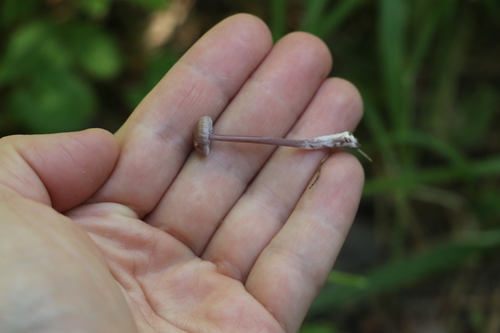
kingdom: Fungi
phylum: Basidiomycota
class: Agaricomycetes
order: Agaricales
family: Mycenaceae
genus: Mycena
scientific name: Mycena pura
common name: Lilac bonnet
